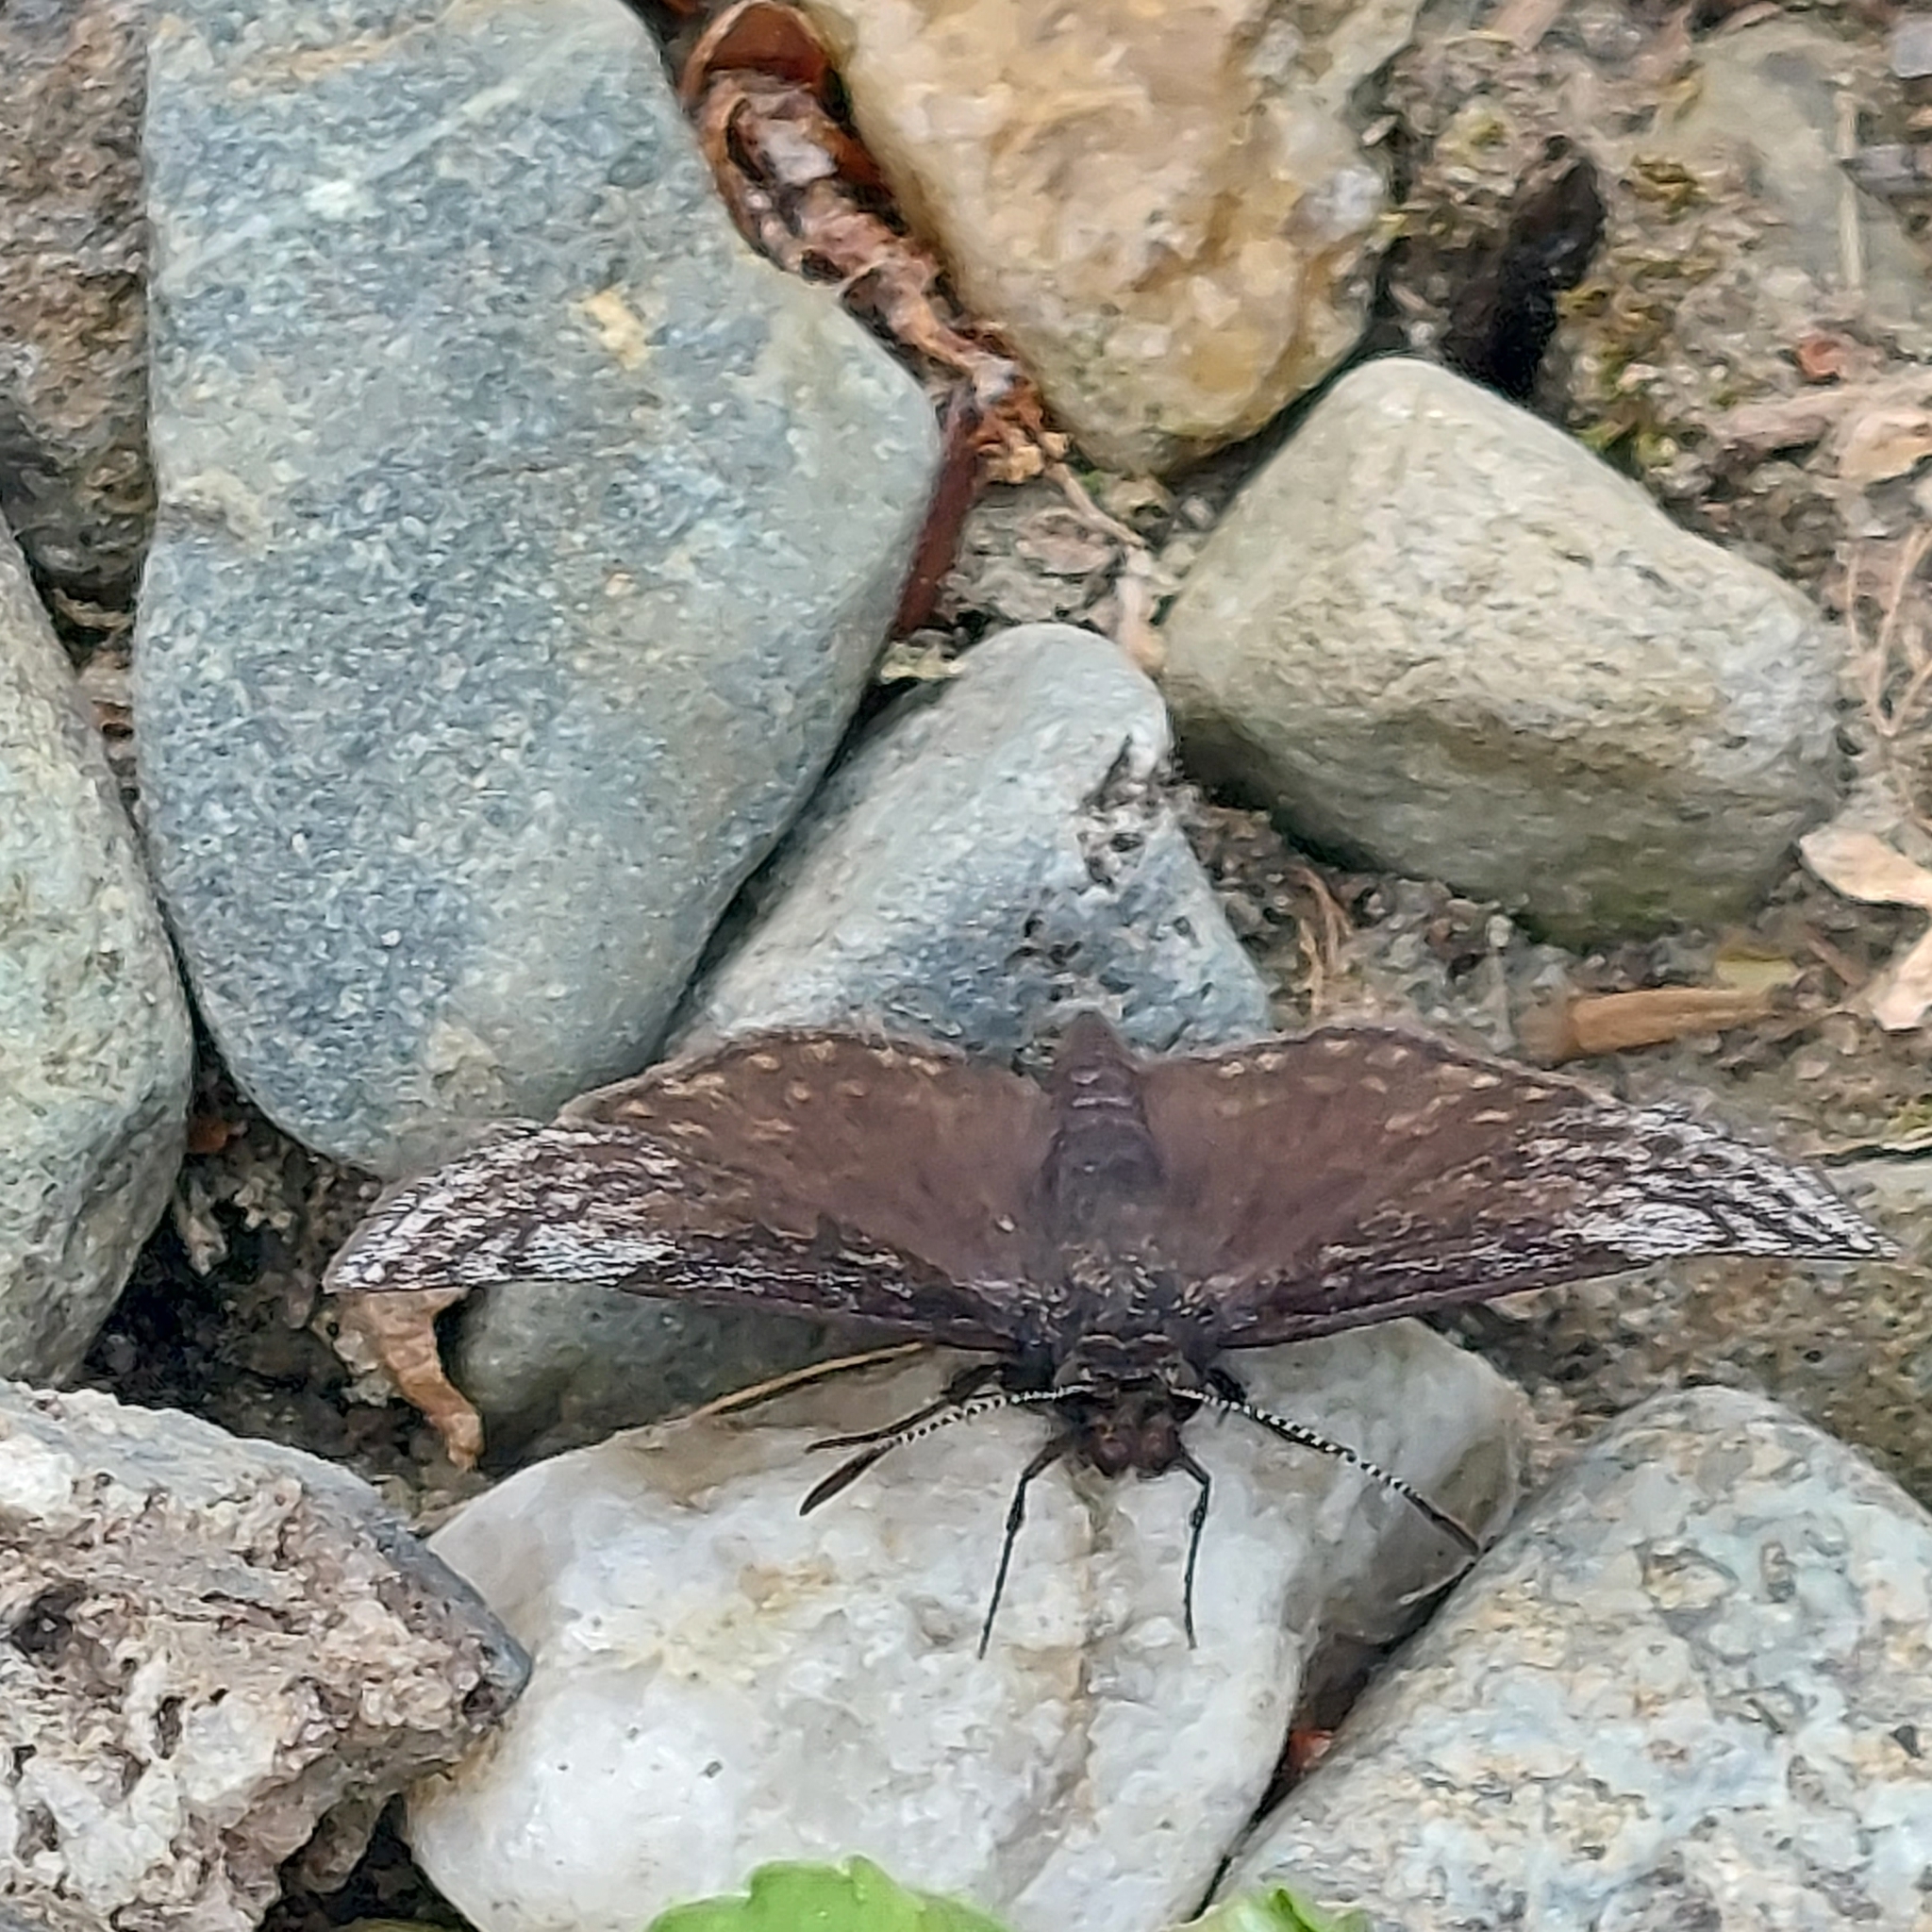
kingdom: Animalia
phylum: Arthropoda
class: Insecta
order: Lepidoptera
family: Hesperiidae
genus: Erynnis
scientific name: Erynnis icelus
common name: Dreamy duskywing
